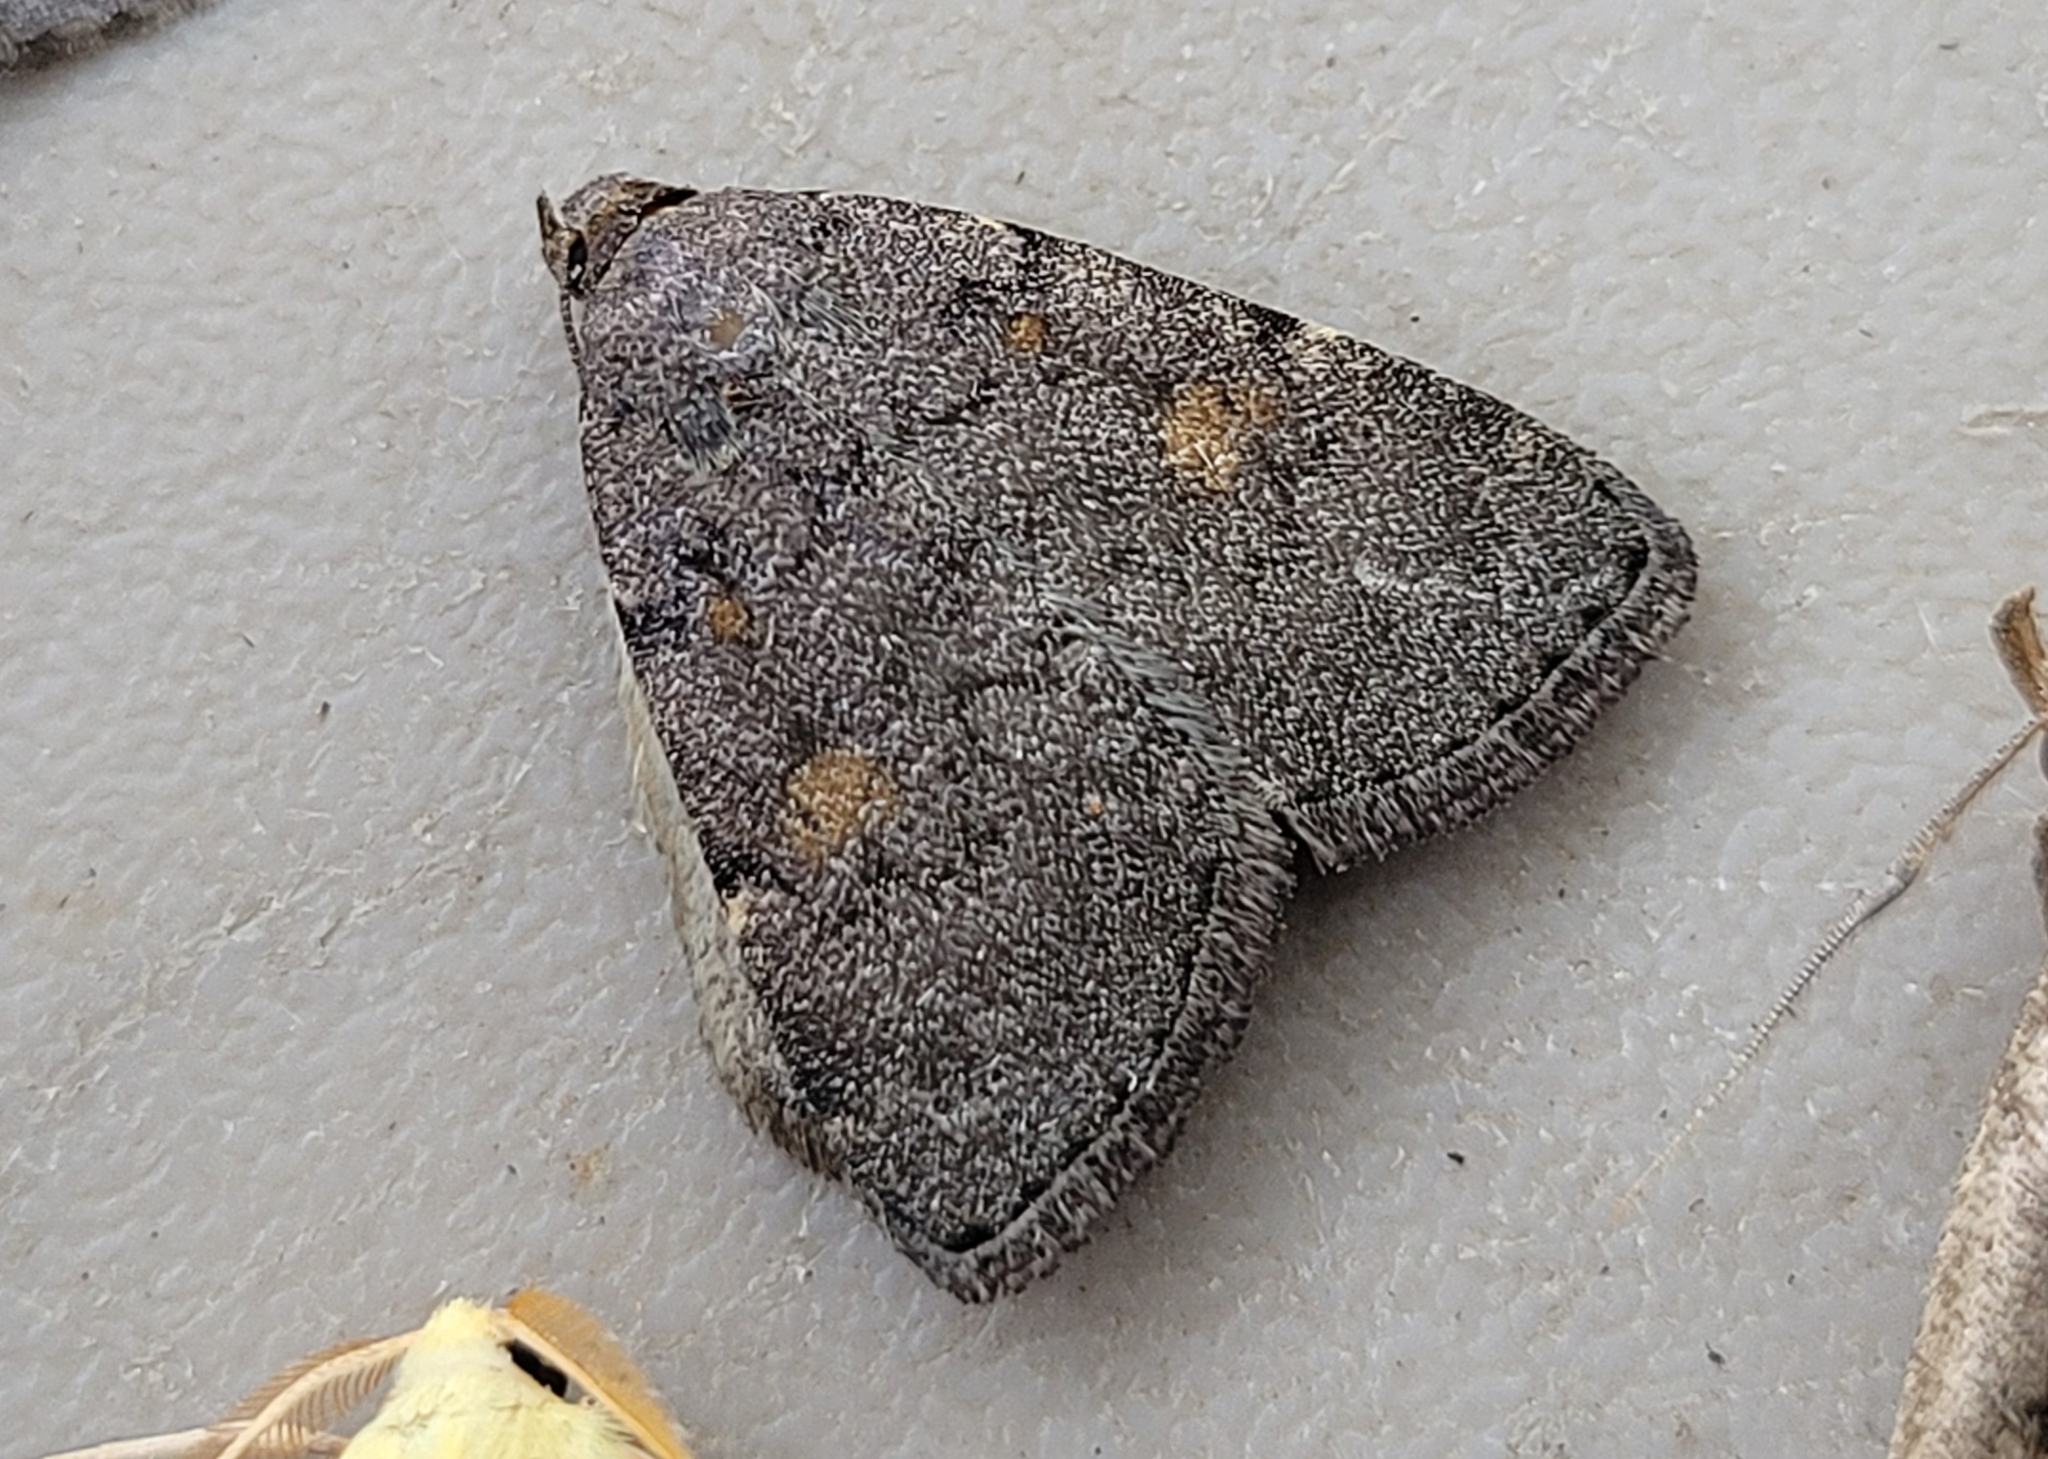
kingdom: Animalia
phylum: Arthropoda
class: Insecta
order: Lepidoptera
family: Erebidae
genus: Idia
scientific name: Idia aemula
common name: Common idia moth
